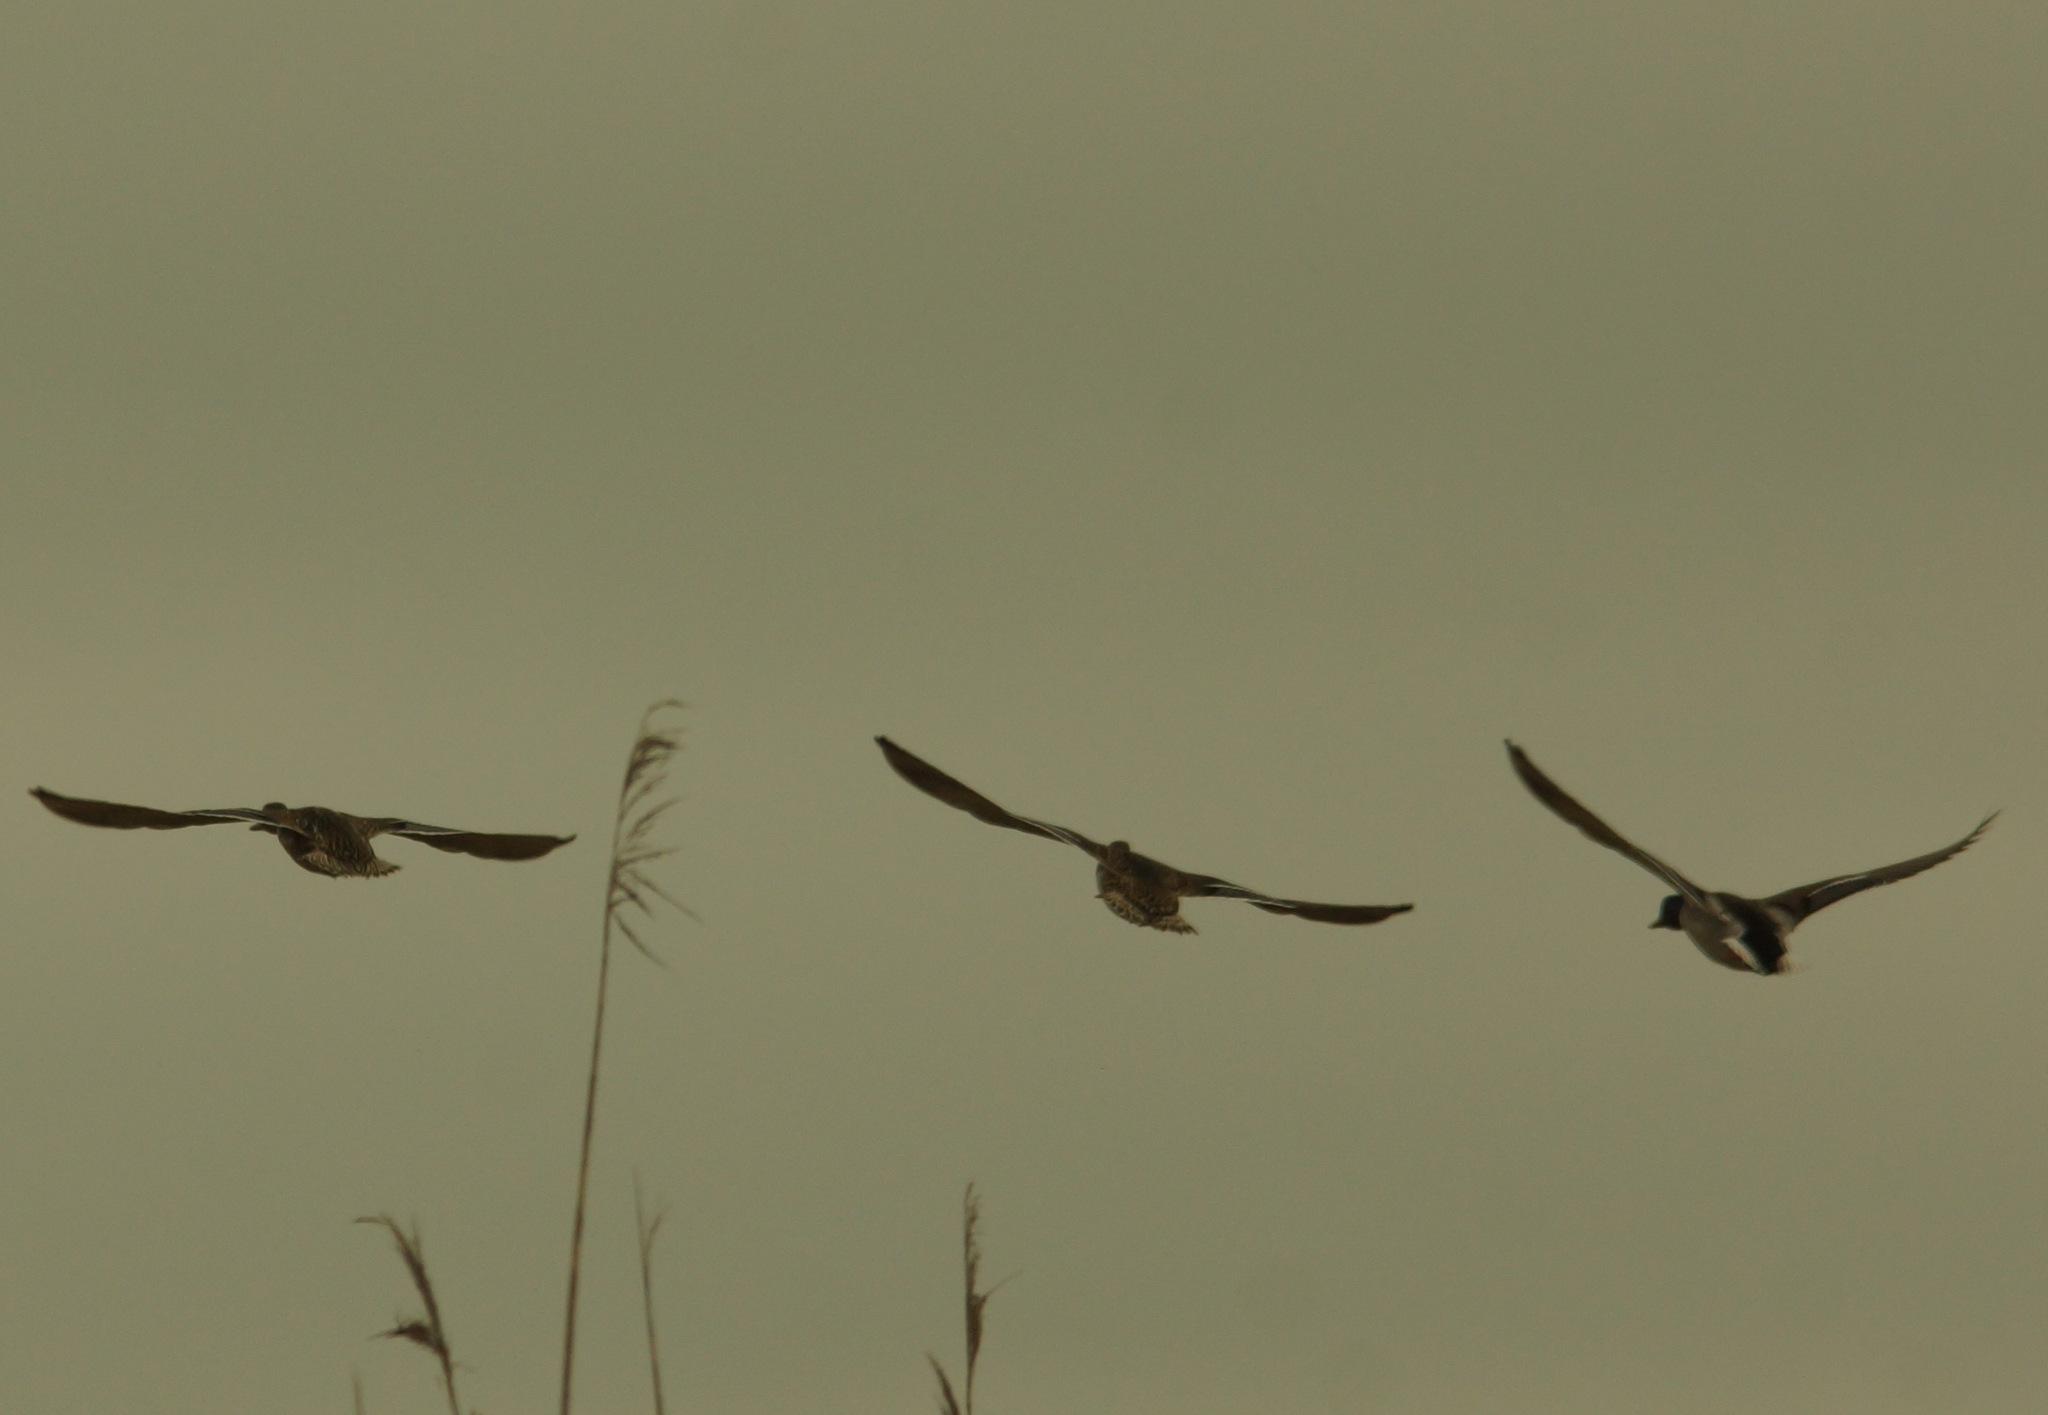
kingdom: Animalia
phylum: Chordata
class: Aves
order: Anseriformes
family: Anatidae
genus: Anas
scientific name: Anas platyrhynchos
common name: Mallard
